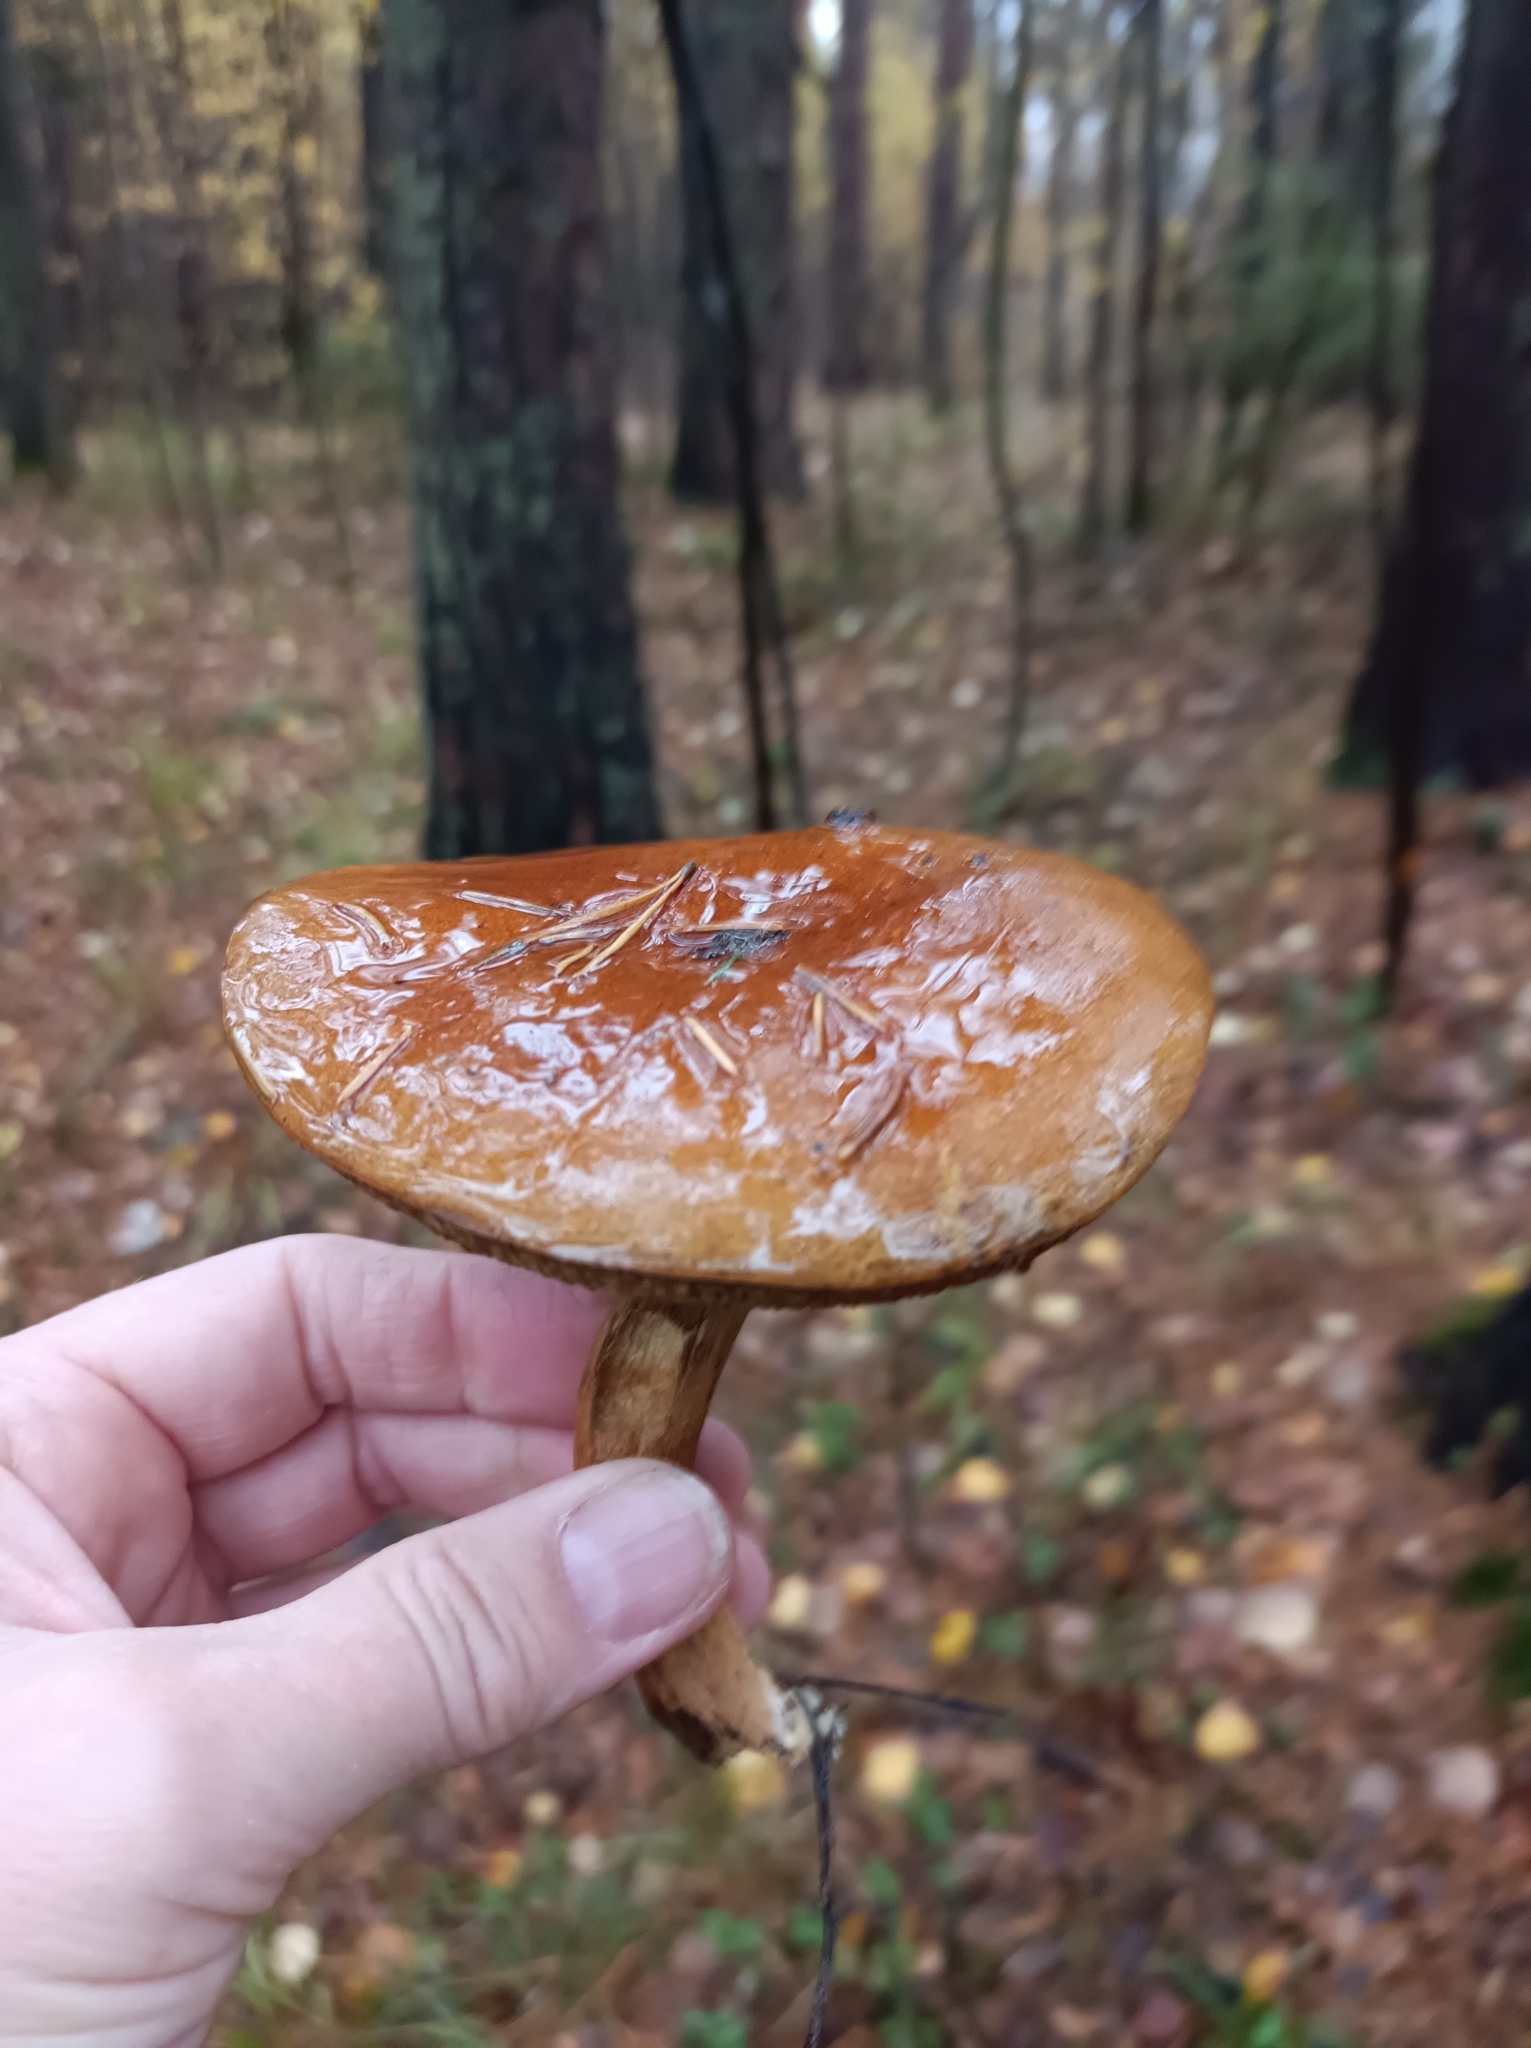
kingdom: Fungi
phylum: Basidiomycota
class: Agaricomycetes
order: Boletales
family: Boletaceae
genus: Imleria
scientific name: Imleria badia
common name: Bay bolete
